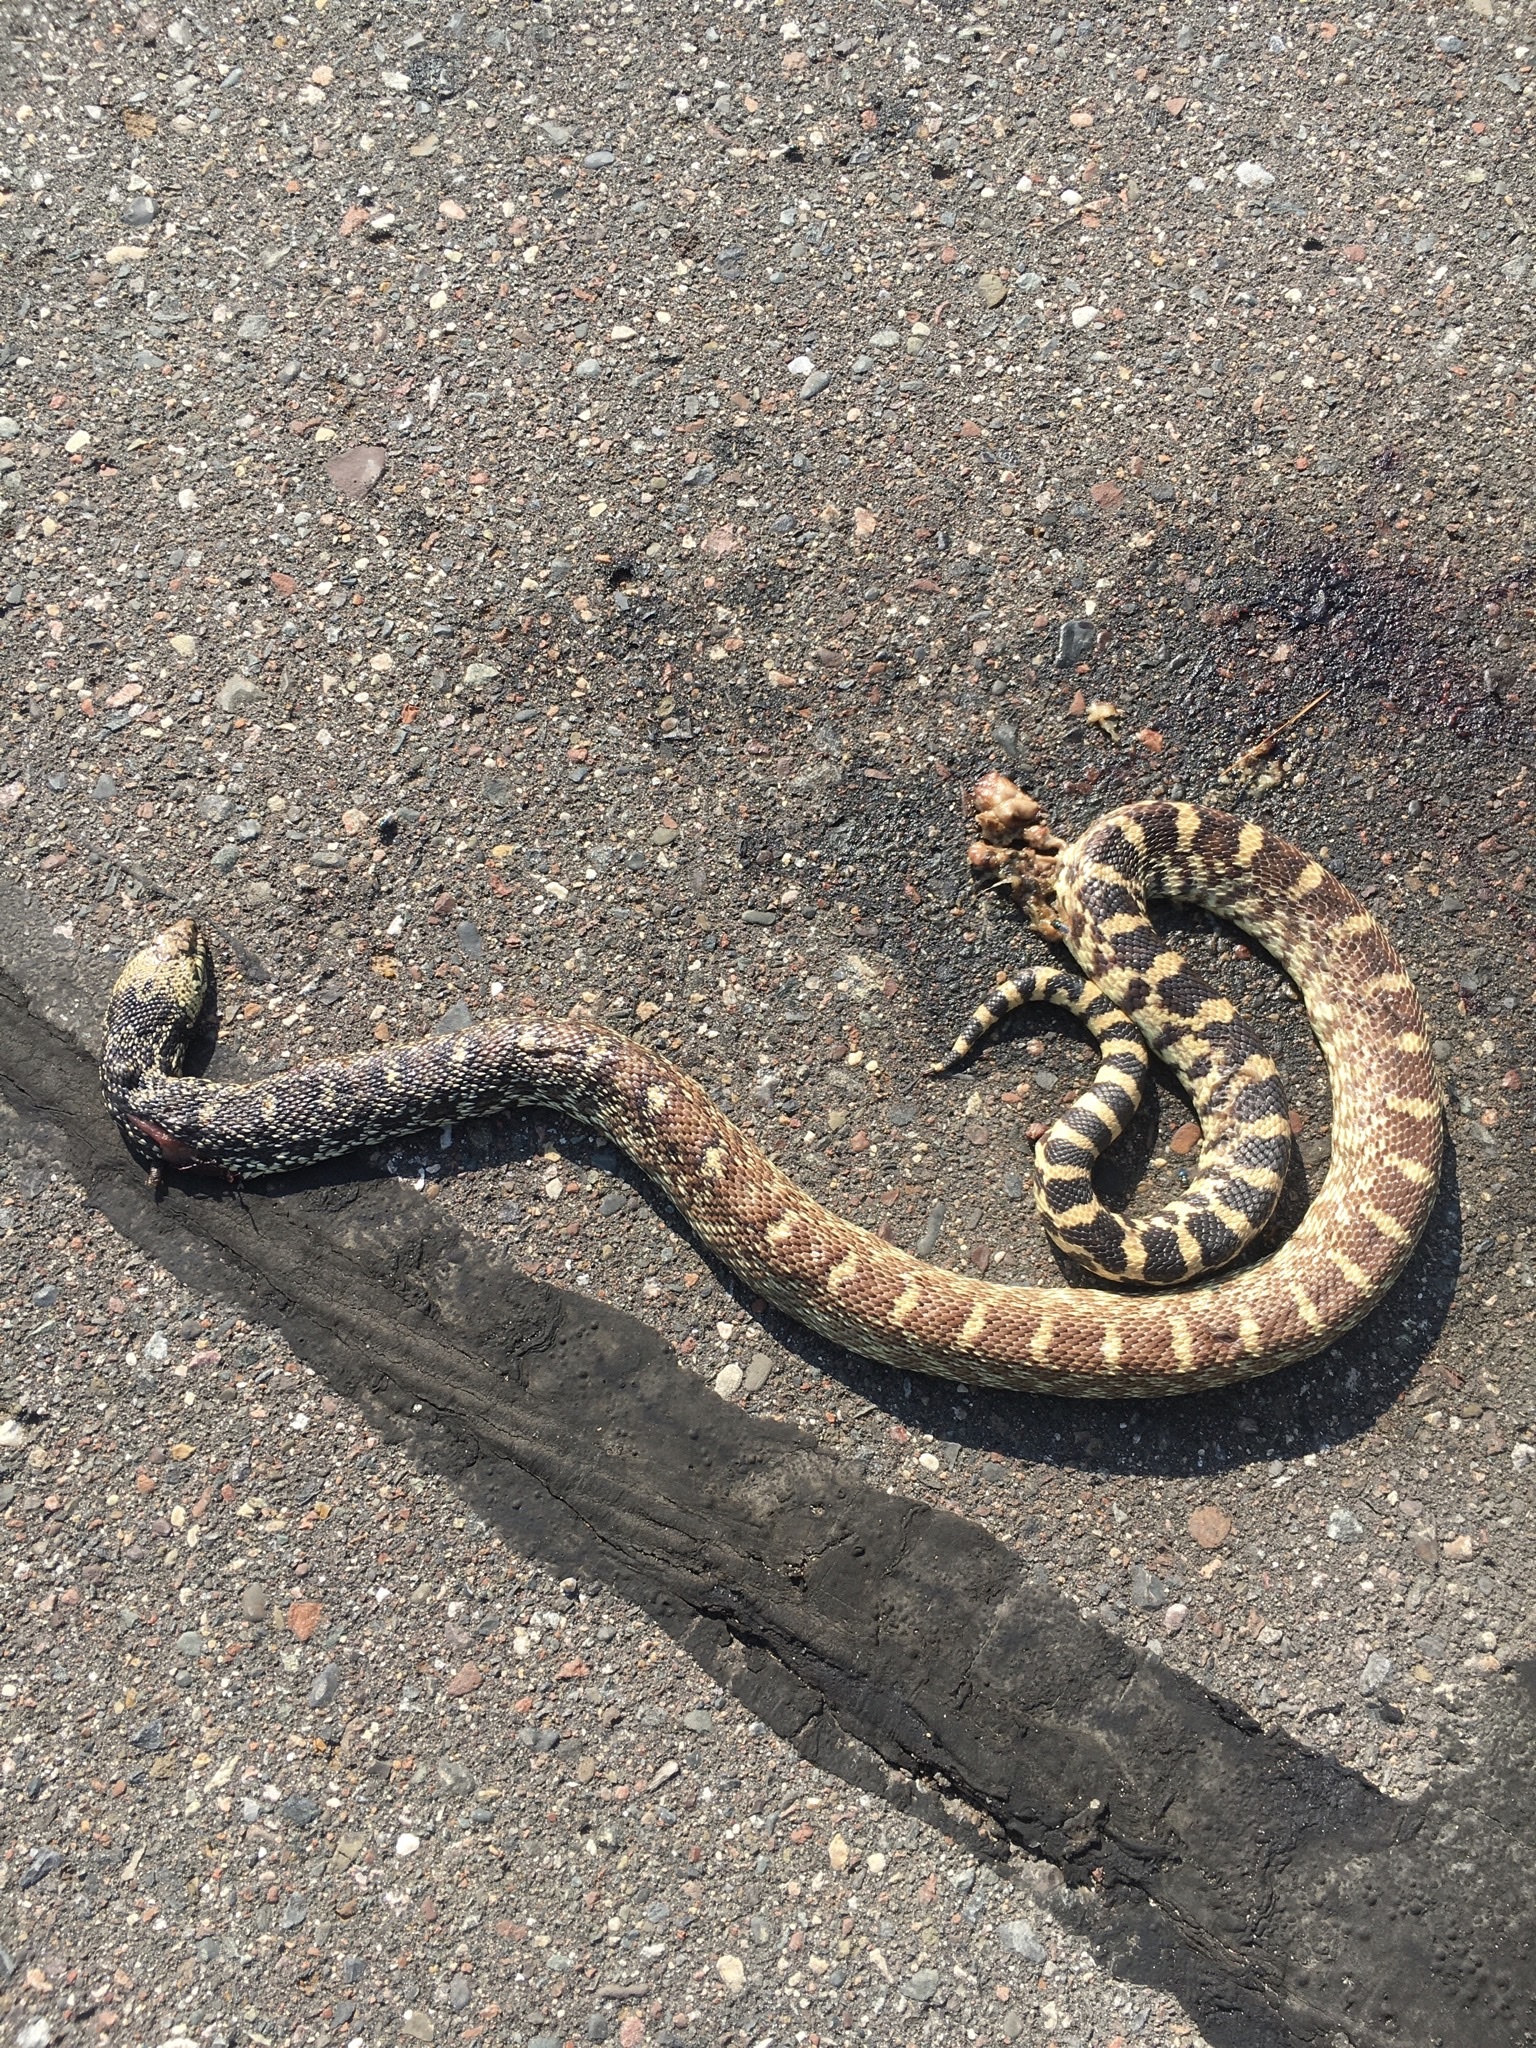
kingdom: Animalia
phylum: Chordata
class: Squamata
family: Colubridae
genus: Pituophis
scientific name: Pituophis catenifer
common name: Gopher snake
